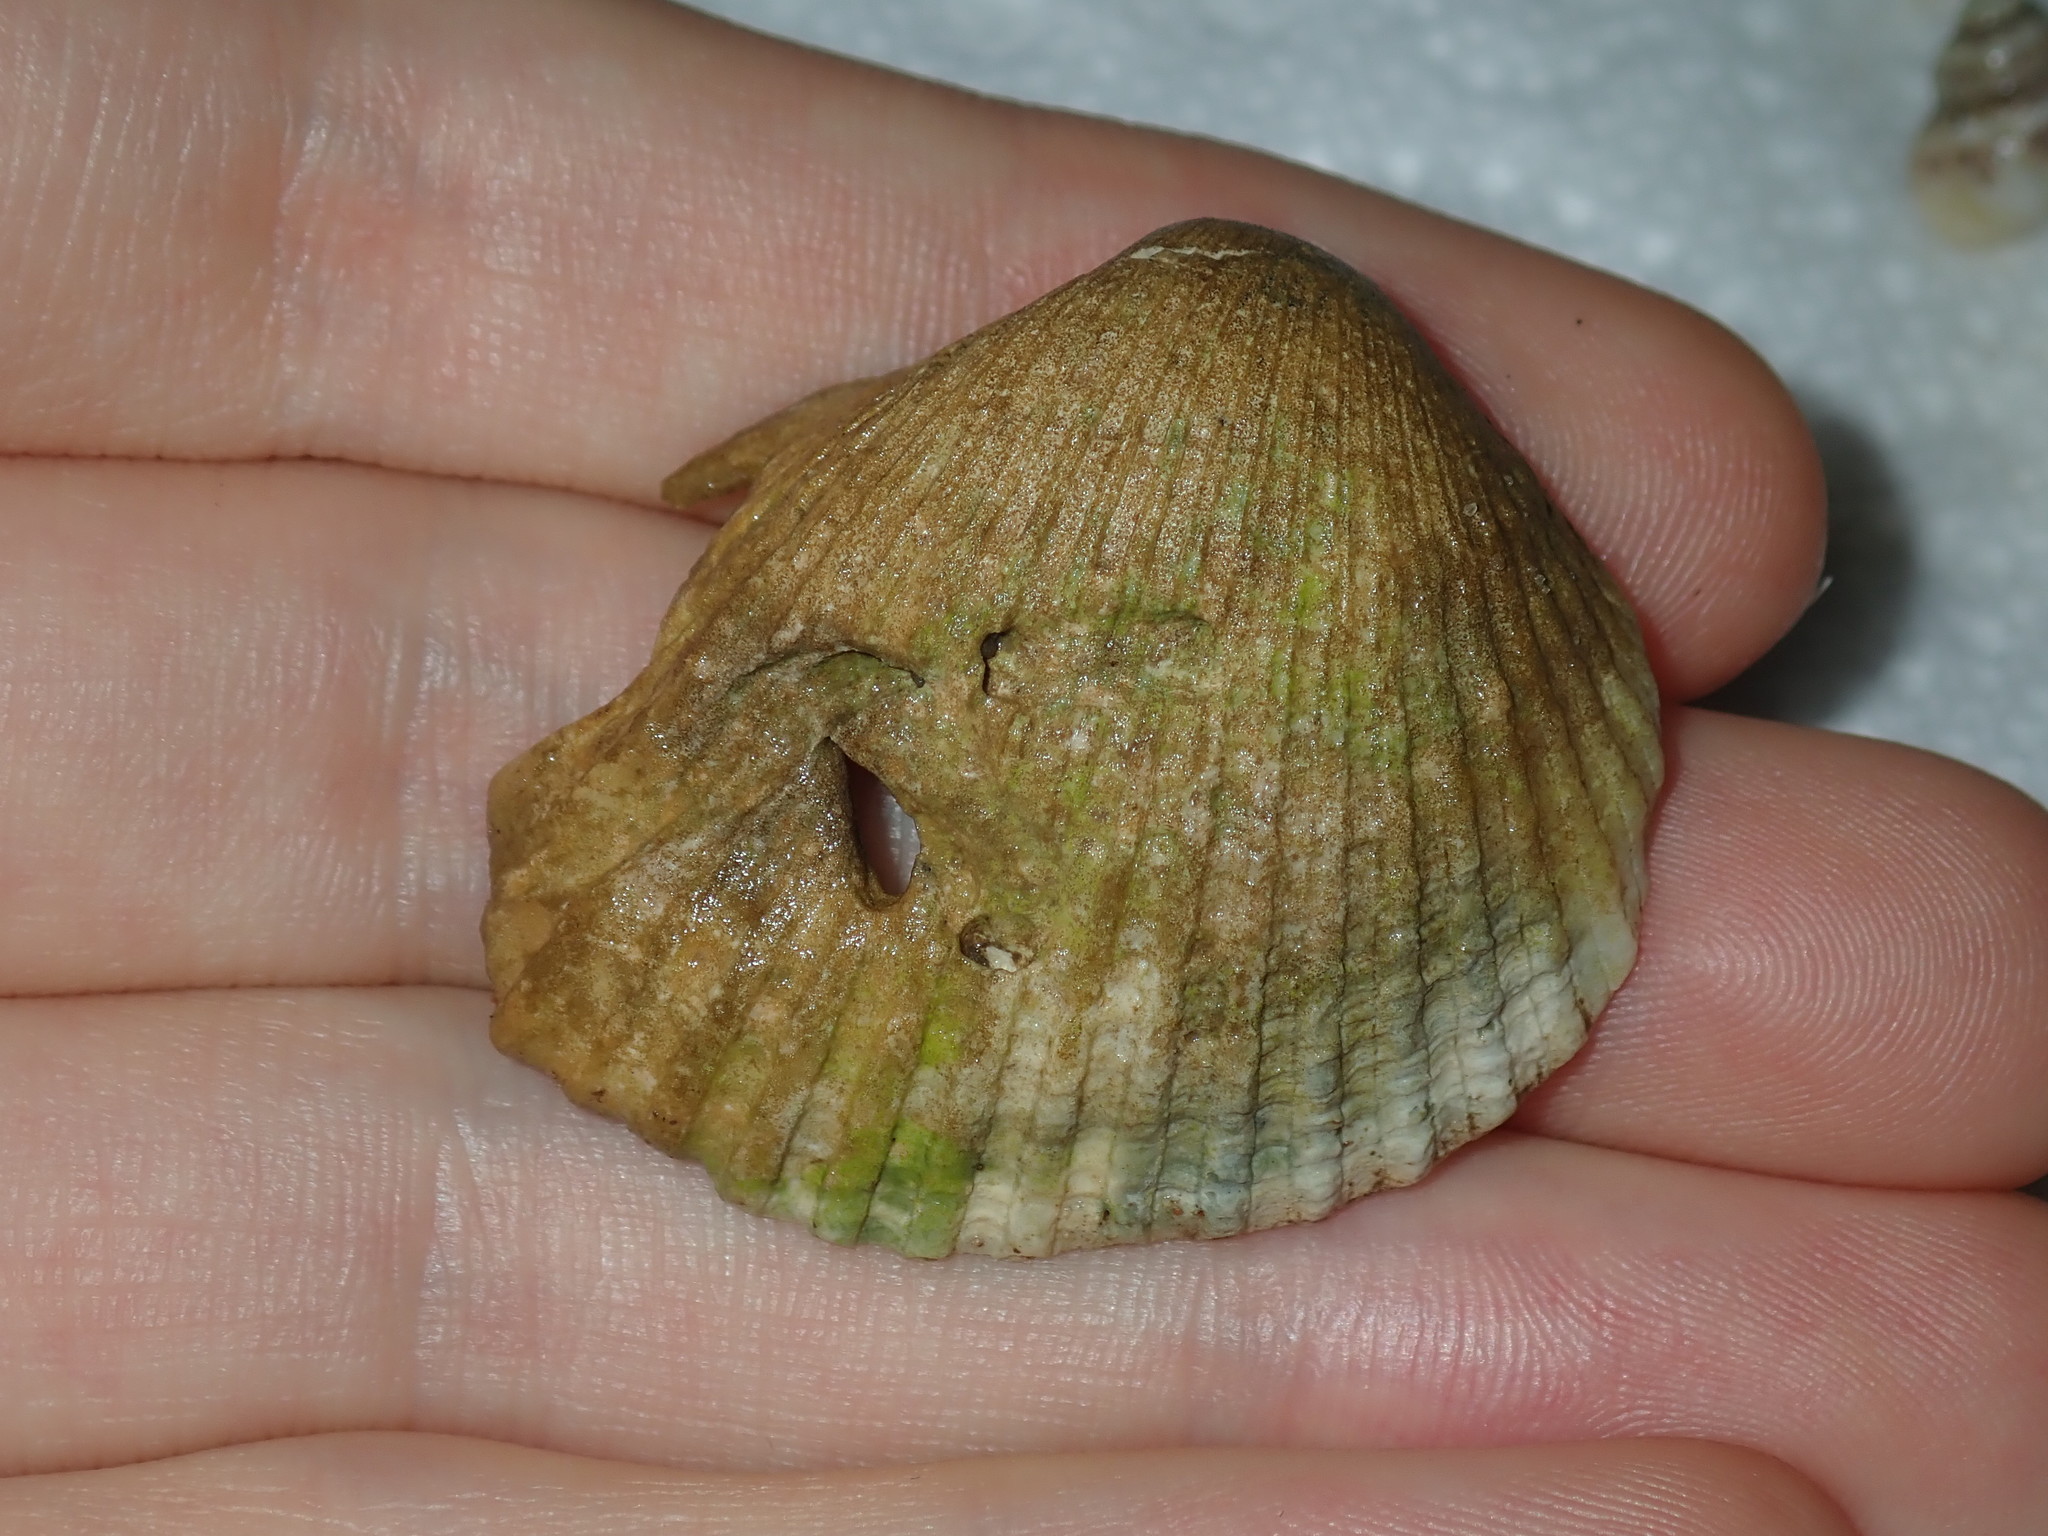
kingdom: Animalia
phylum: Mollusca
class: Bivalvia
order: Arcida
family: Arcidae
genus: Anadara
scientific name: Anadara trapezia
